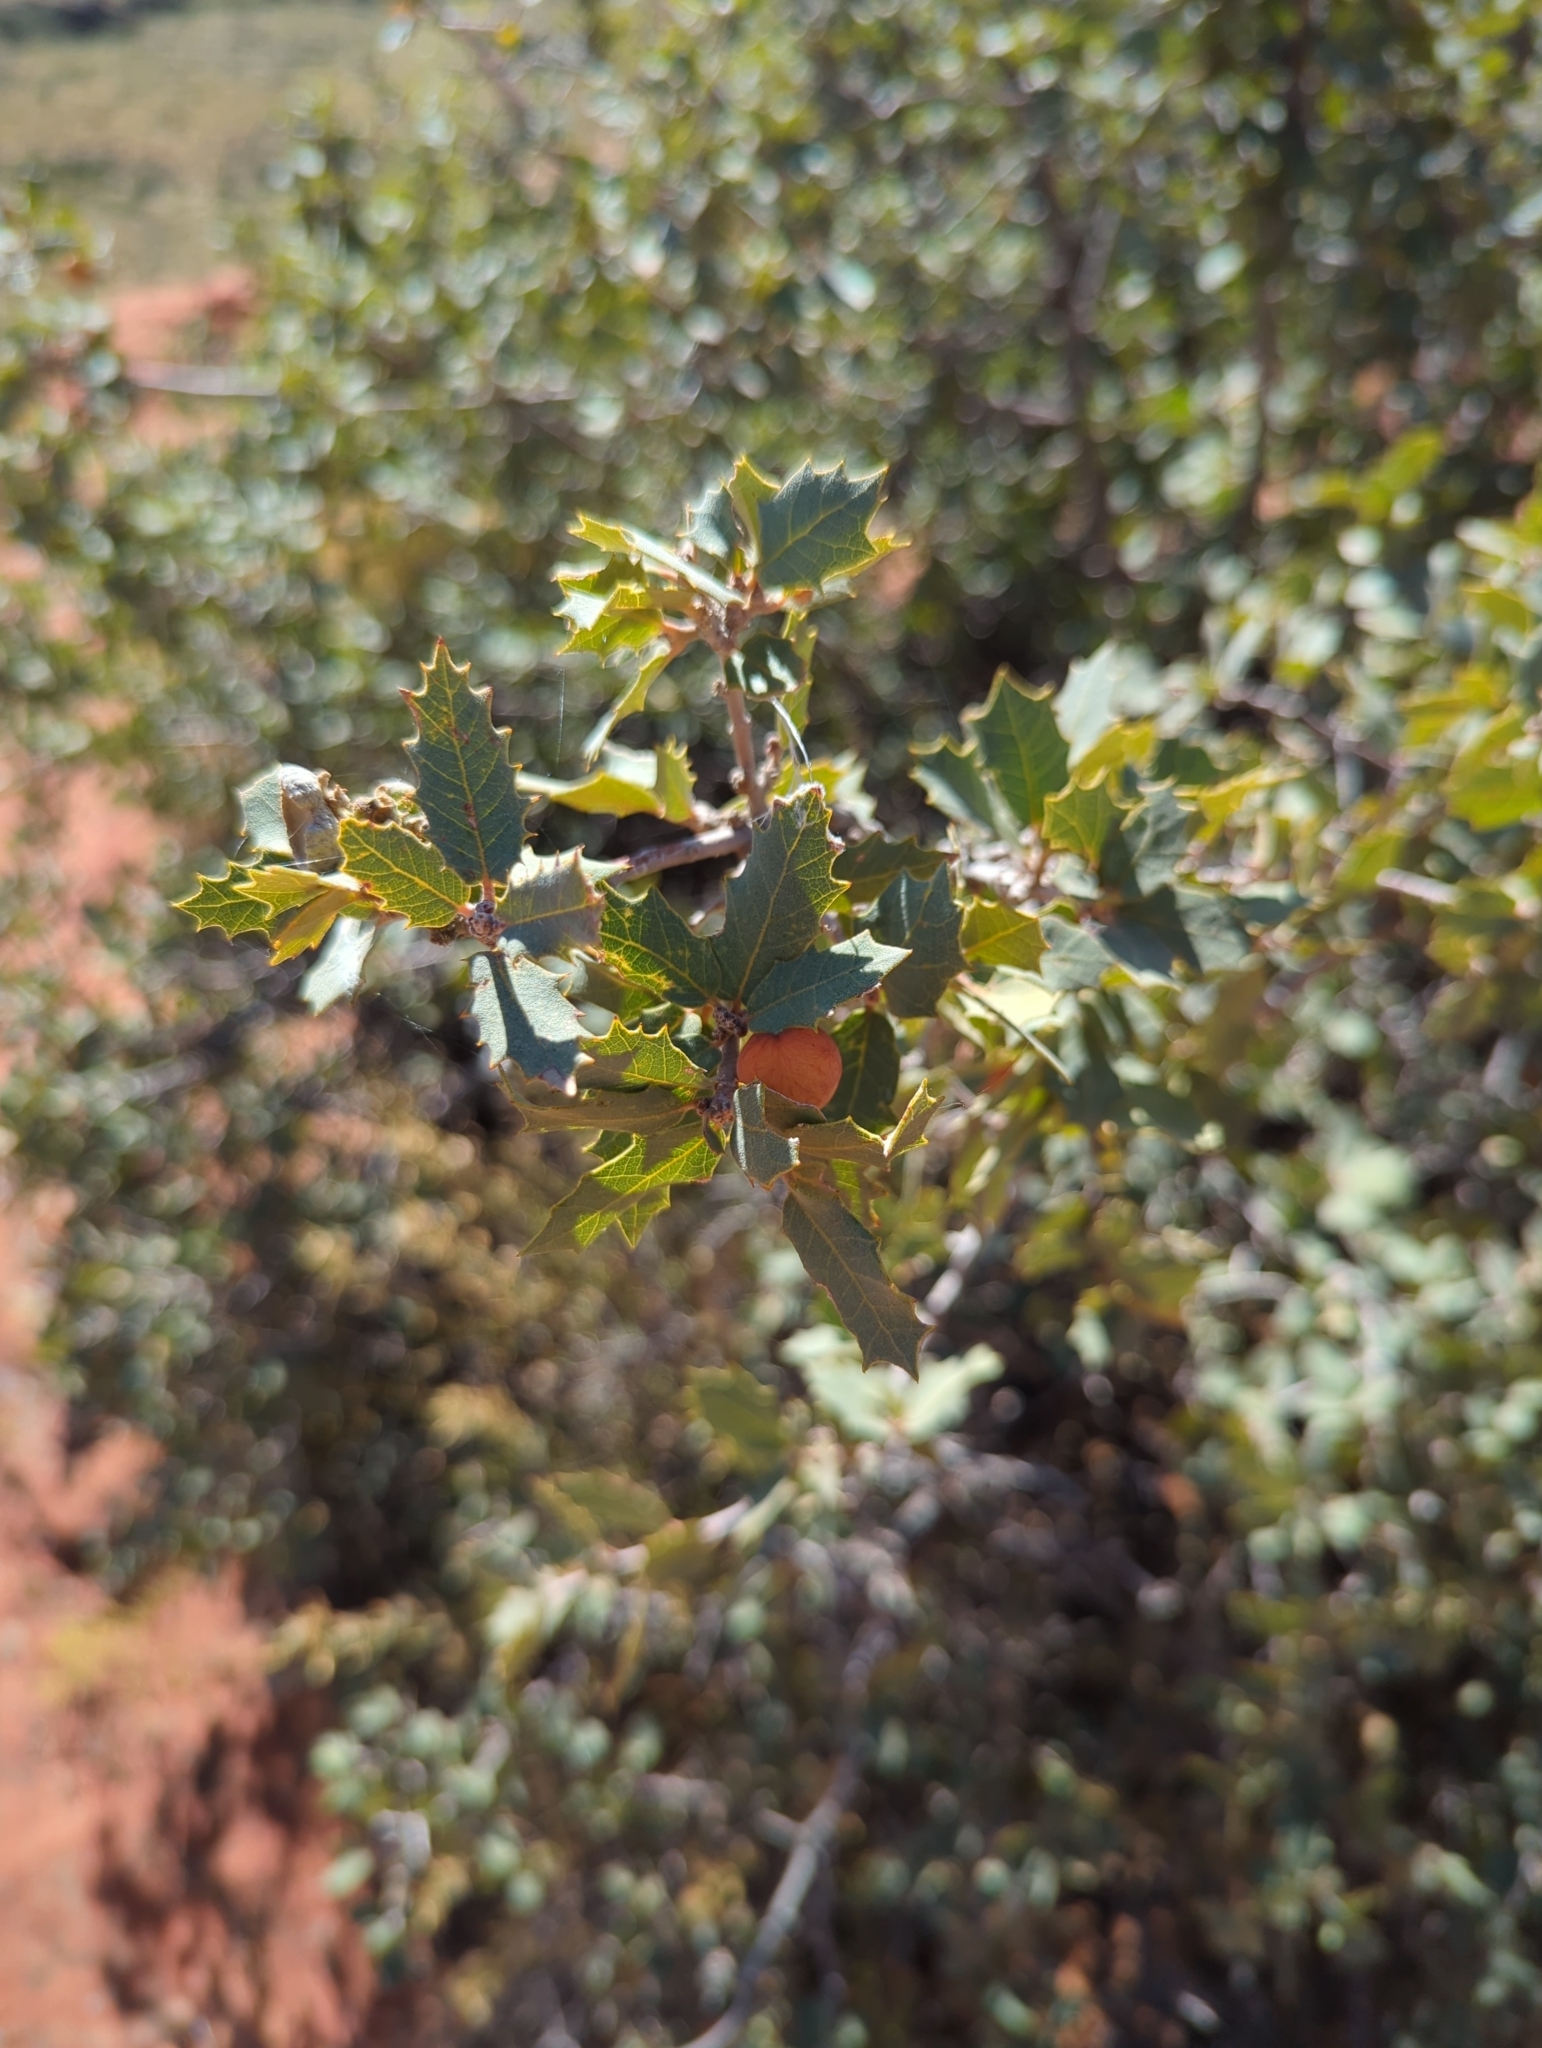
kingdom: Plantae
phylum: Tracheophyta
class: Magnoliopsida
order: Fagales
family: Fagaceae
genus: Quercus
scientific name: Quercus turbinella
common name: Sonoran scrub oak
